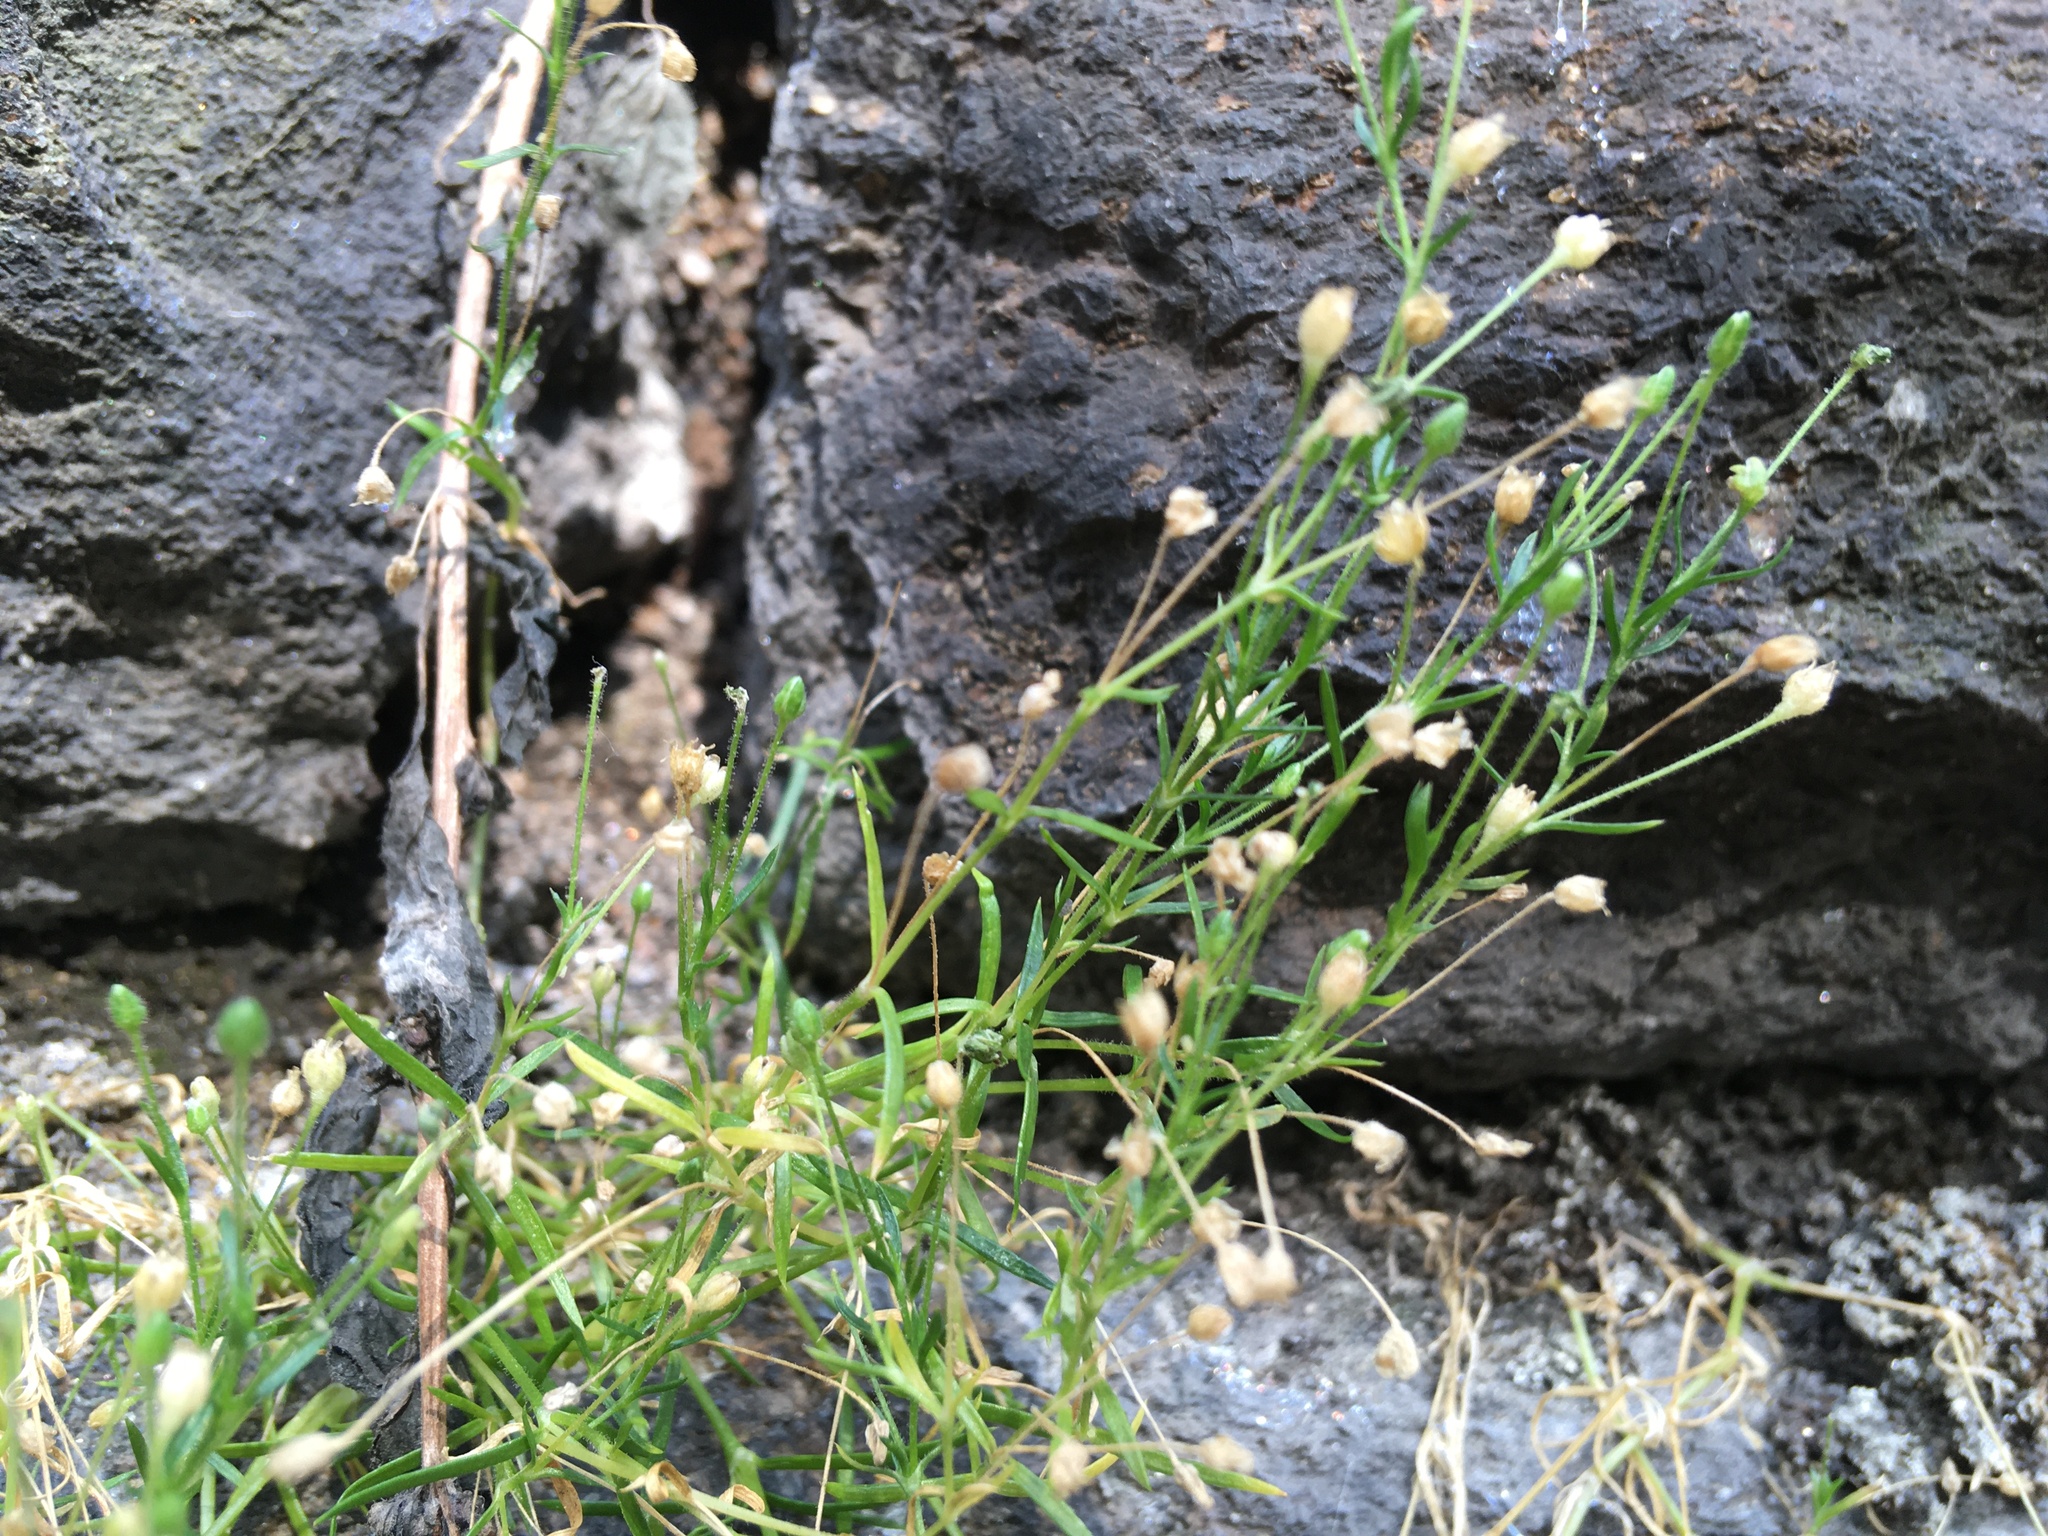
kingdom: Plantae
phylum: Tracheophyta
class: Magnoliopsida
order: Caryophyllales
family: Caryophyllaceae
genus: Sagina
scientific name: Sagina japonica
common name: Japanese pearlwort
